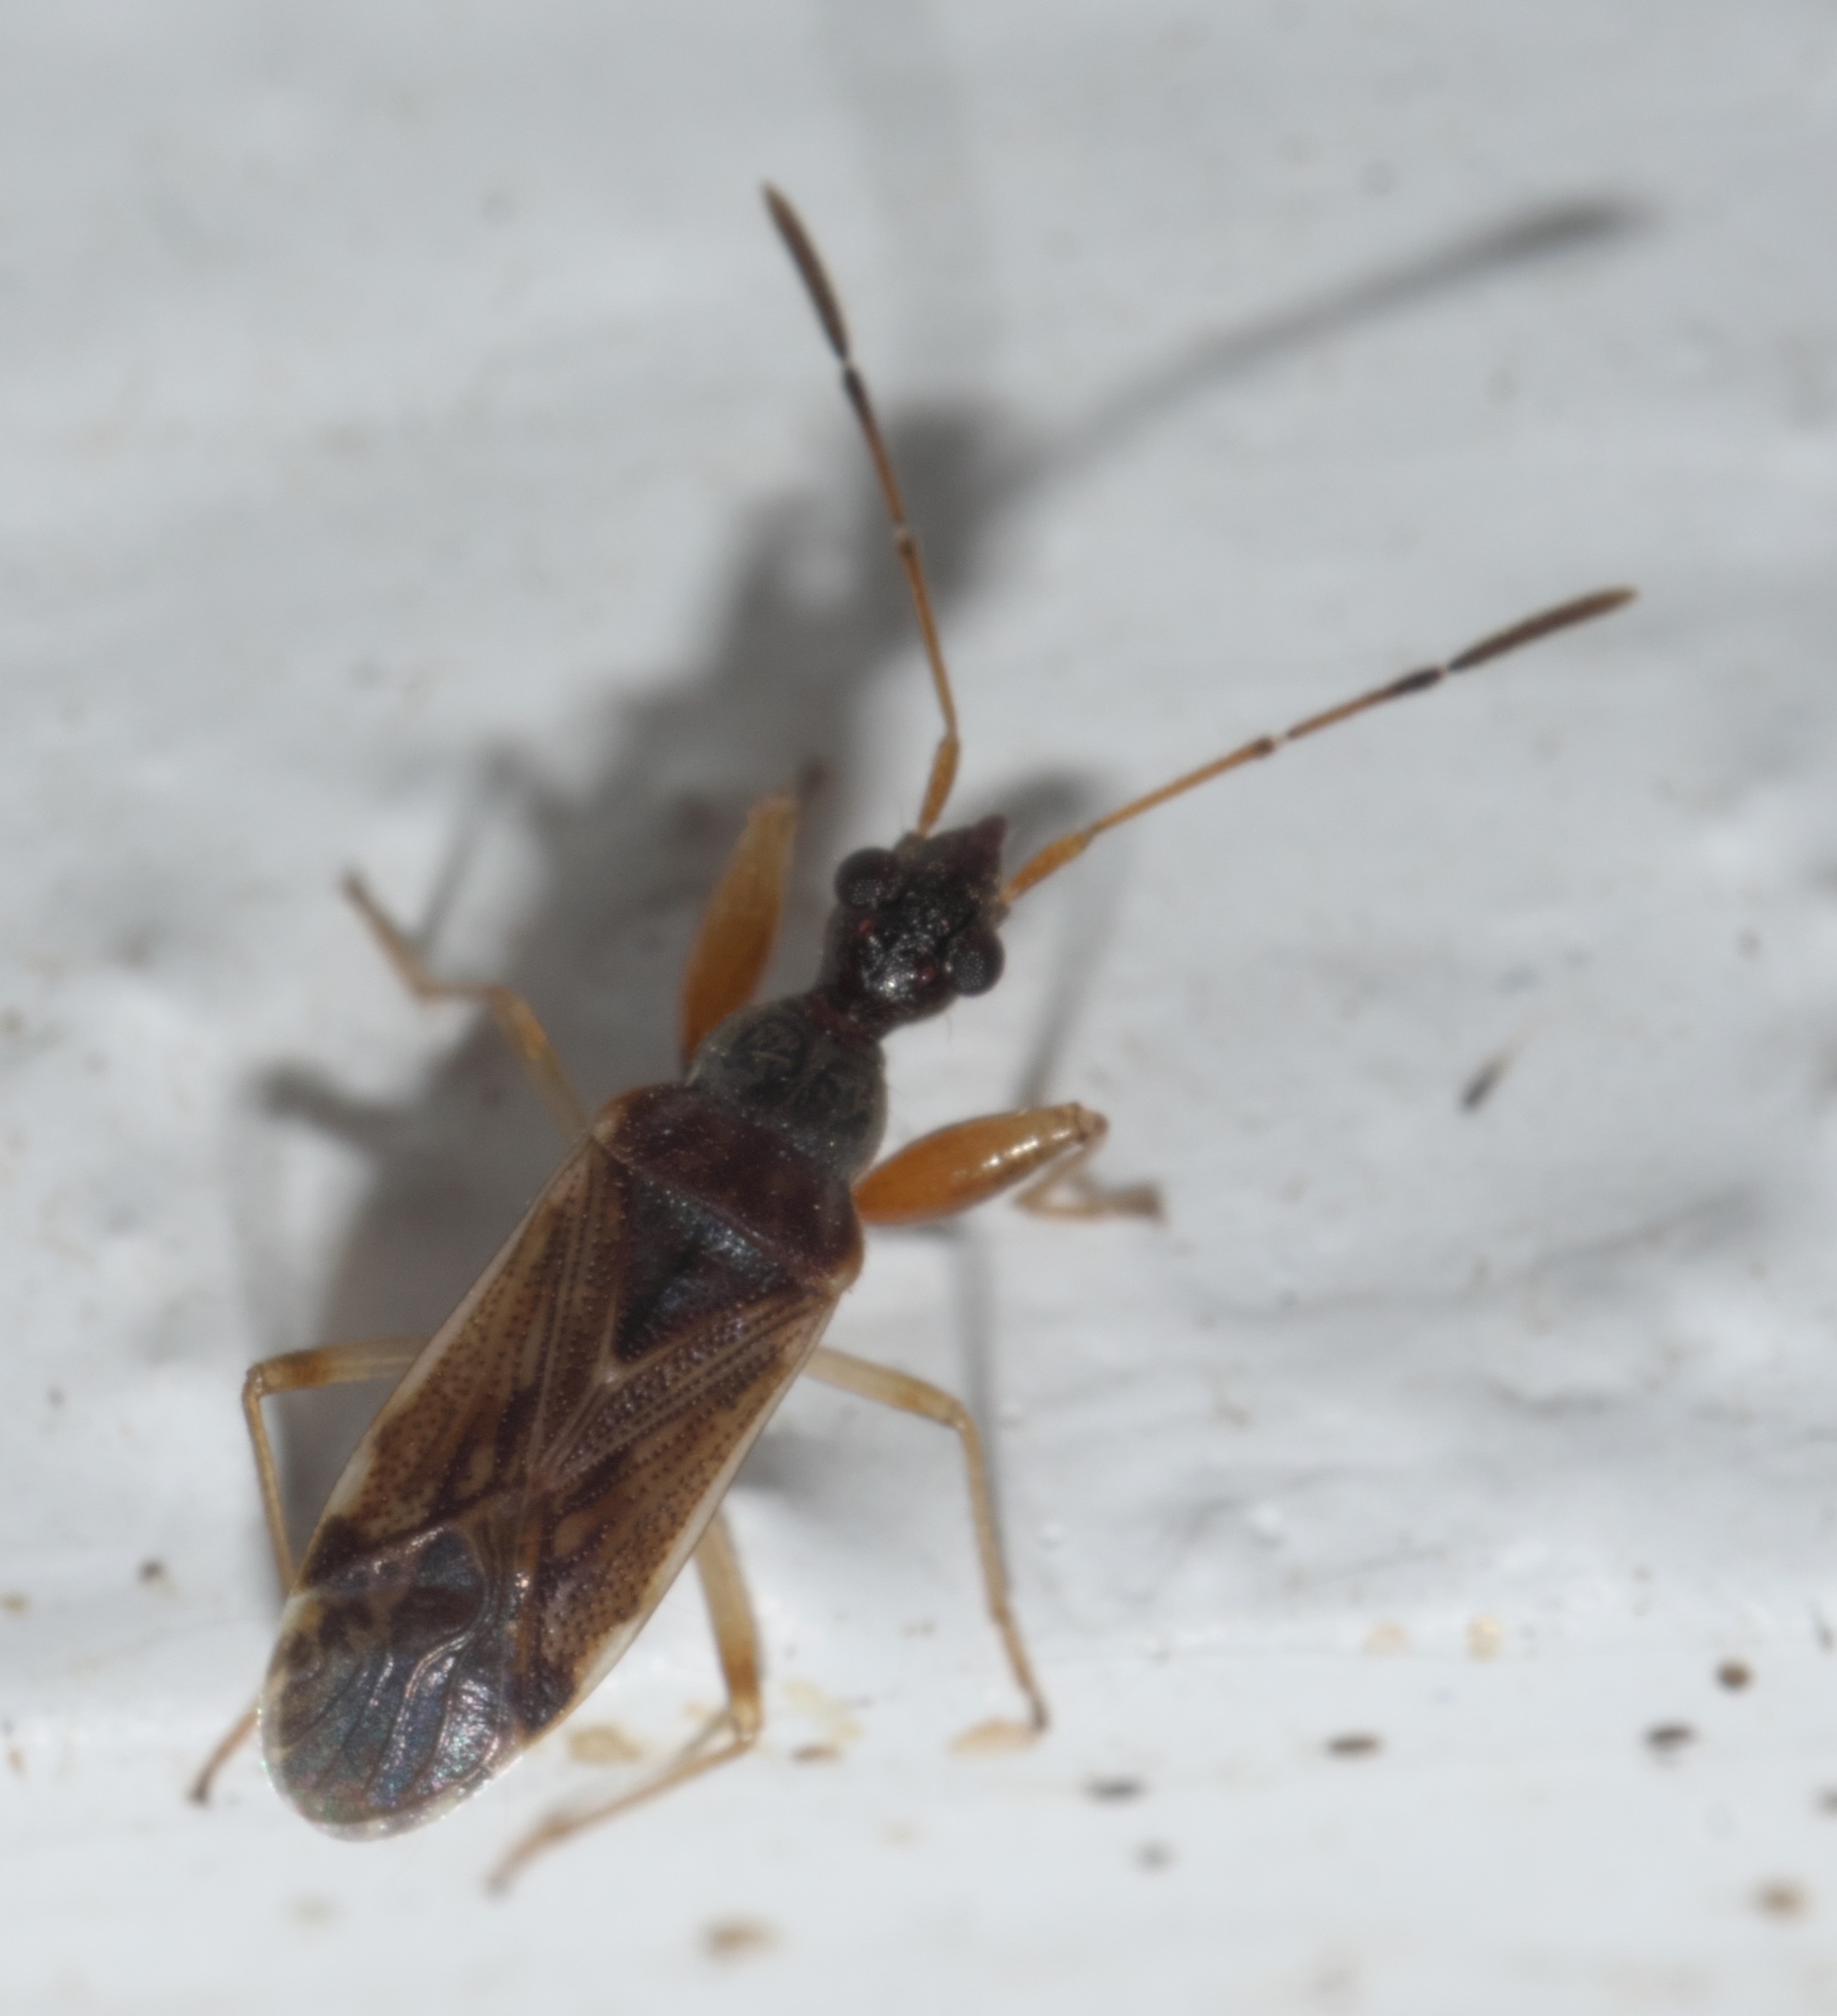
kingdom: Animalia
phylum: Arthropoda
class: Insecta
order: Hemiptera
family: Rhyparochromidae
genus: Heraeus
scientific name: Heraeus plebejus
